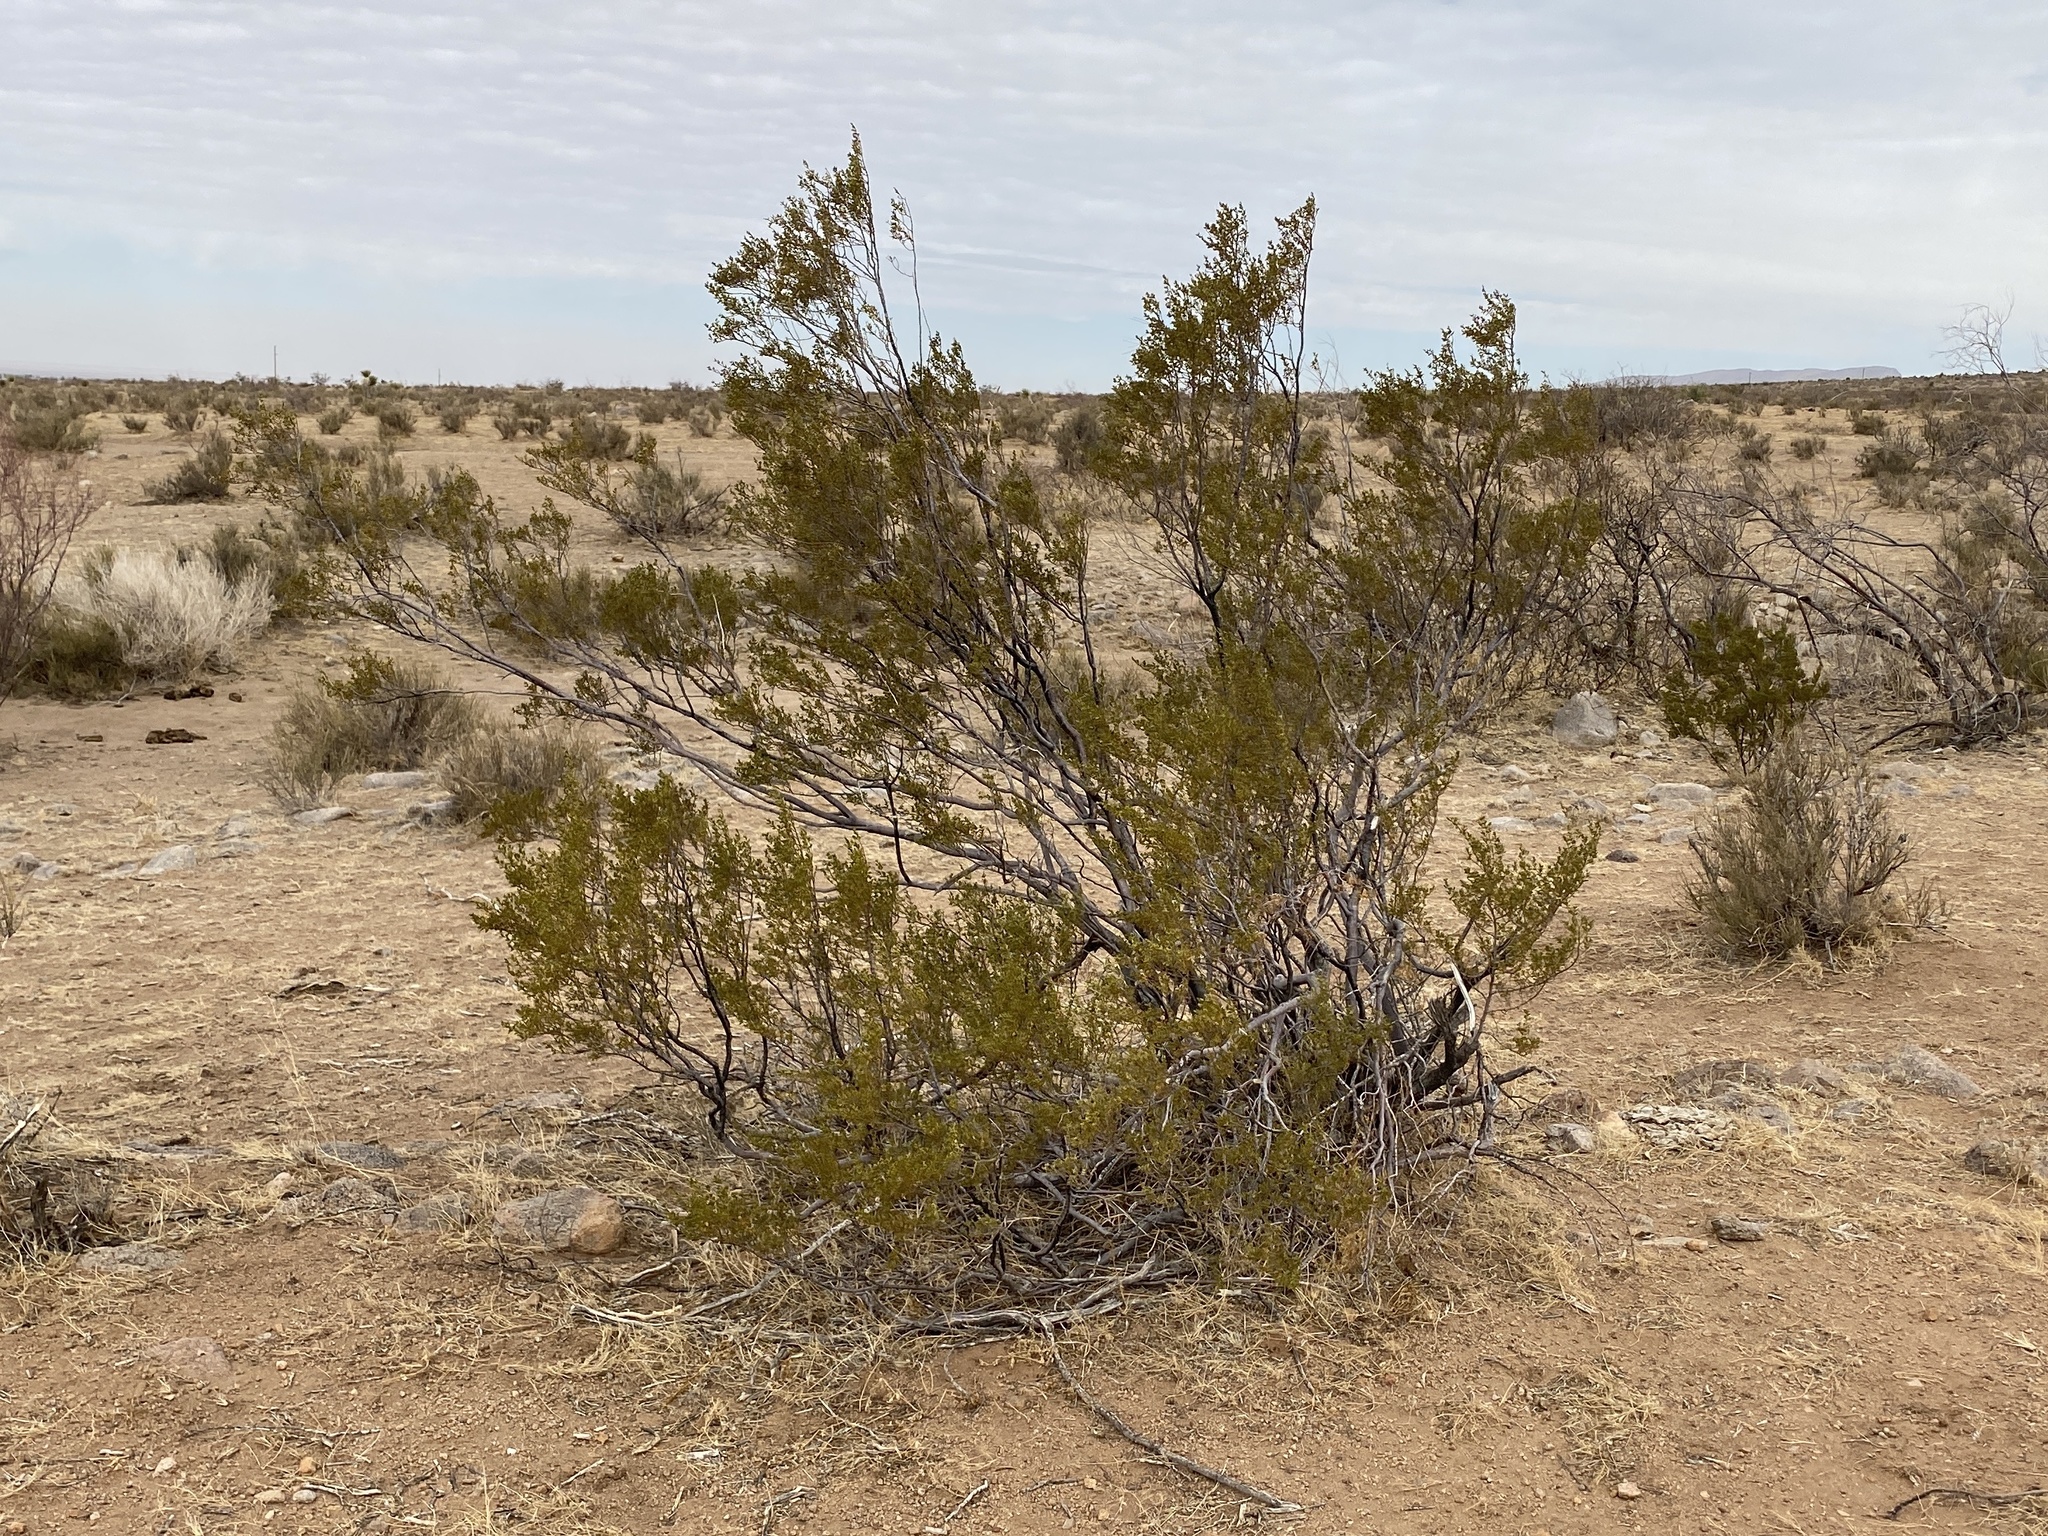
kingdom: Plantae
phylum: Tracheophyta
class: Magnoliopsida
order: Zygophyllales
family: Zygophyllaceae
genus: Larrea
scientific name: Larrea tridentata
